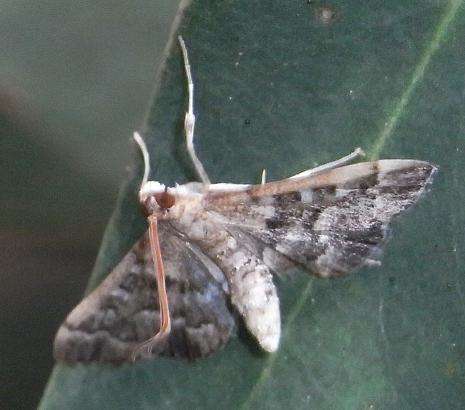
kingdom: Animalia
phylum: Arthropoda
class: Insecta
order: Lepidoptera
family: Crambidae
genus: Nacoleia
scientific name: Nacoleia rhoeoalis
